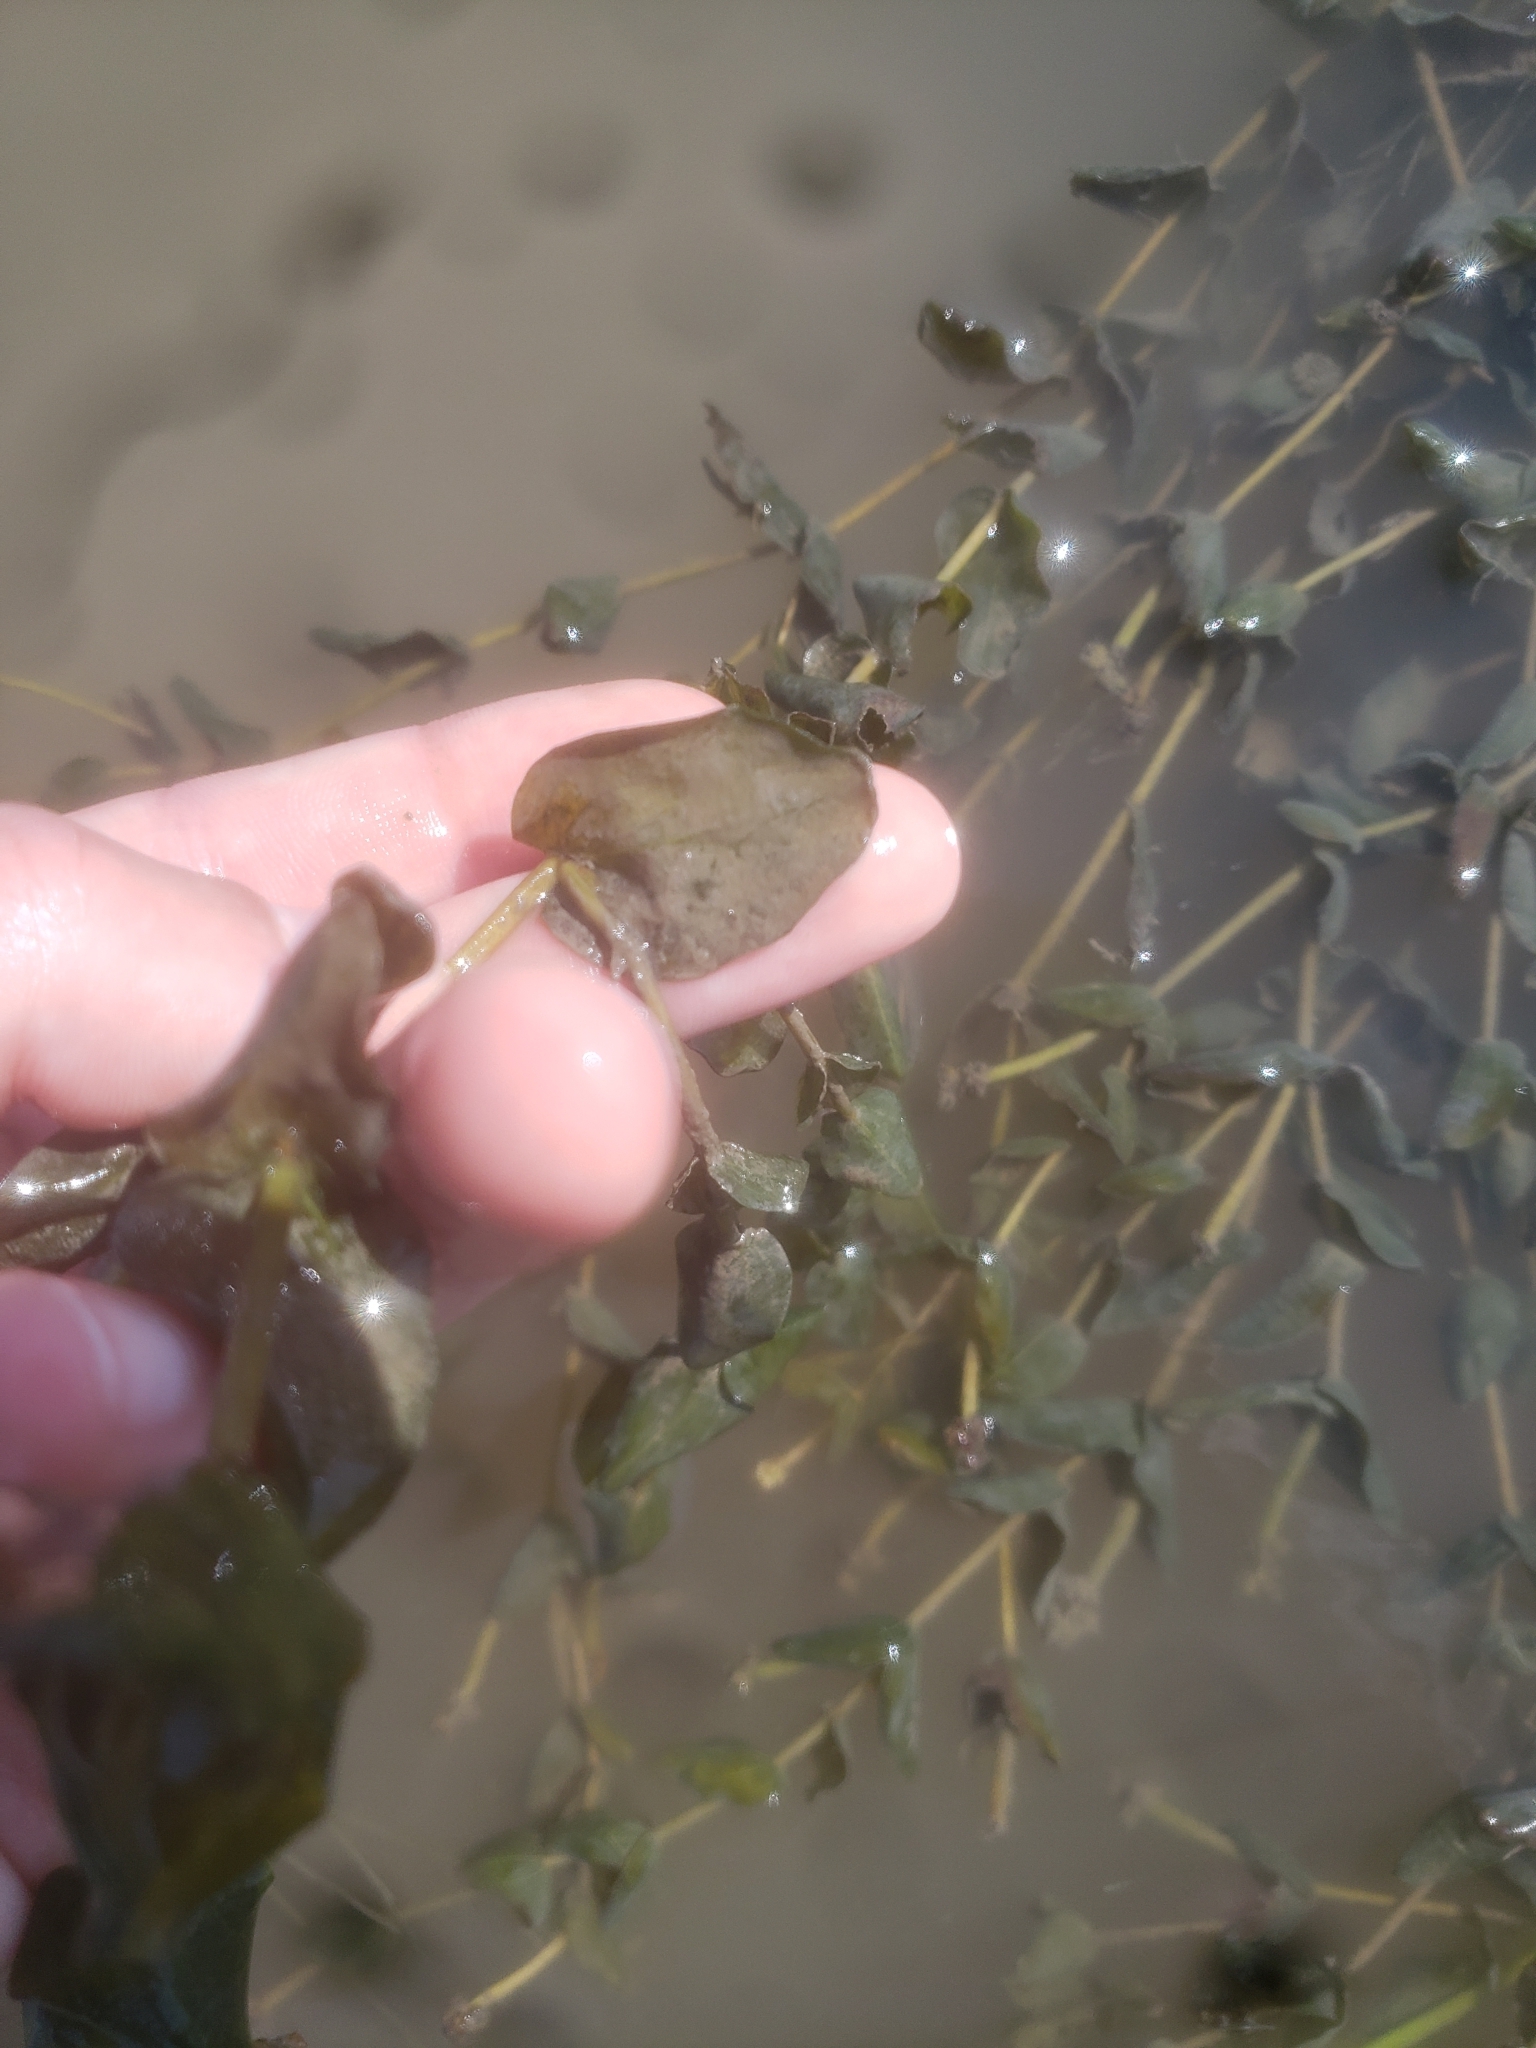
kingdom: Plantae
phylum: Tracheophyta
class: Liliopsida
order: Alismatales
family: Potamogetonaceae
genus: Potamogeton
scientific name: Potamogeton perfoliatus
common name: Perfoliate pondweed
